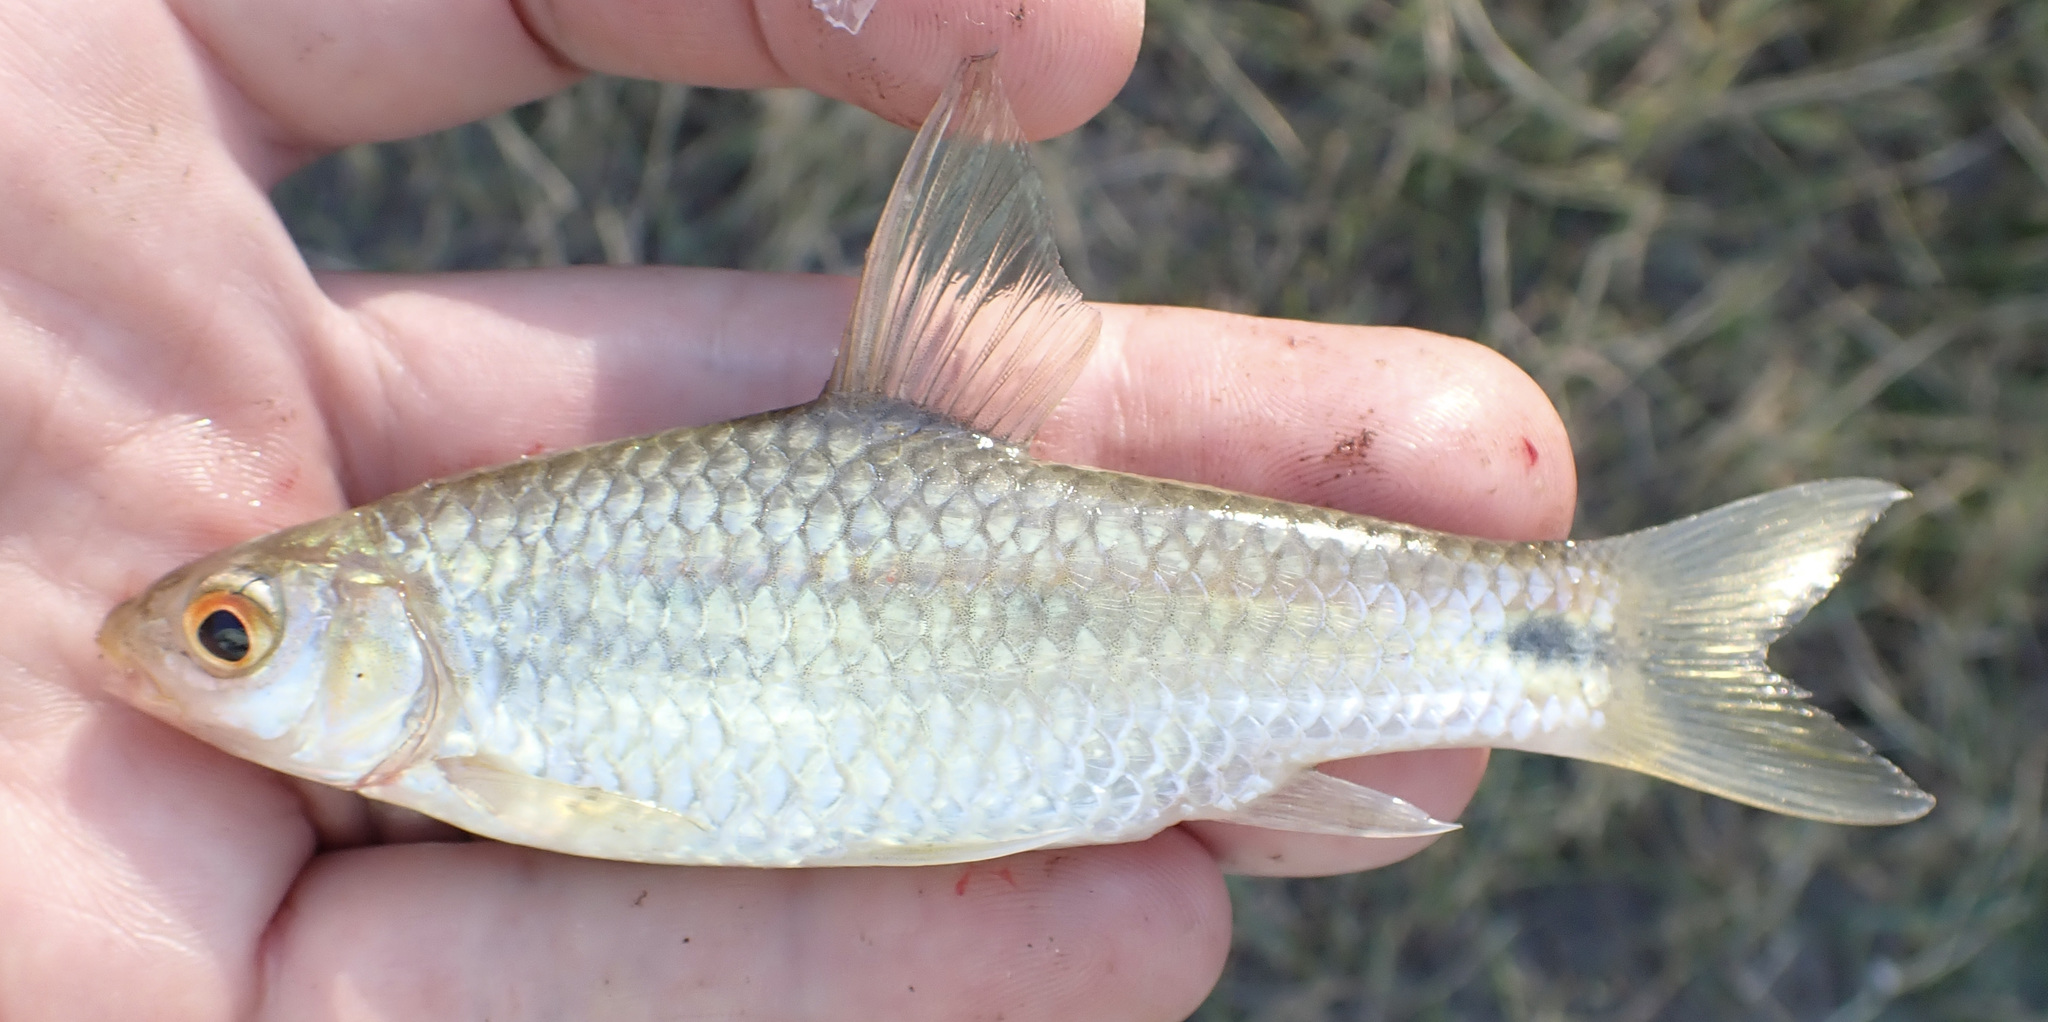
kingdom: Animalia
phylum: Chordata
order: Cypriniformes
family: Cyprinidae
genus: Enteromius
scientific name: Enteromius poechii
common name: Dashtail barb
